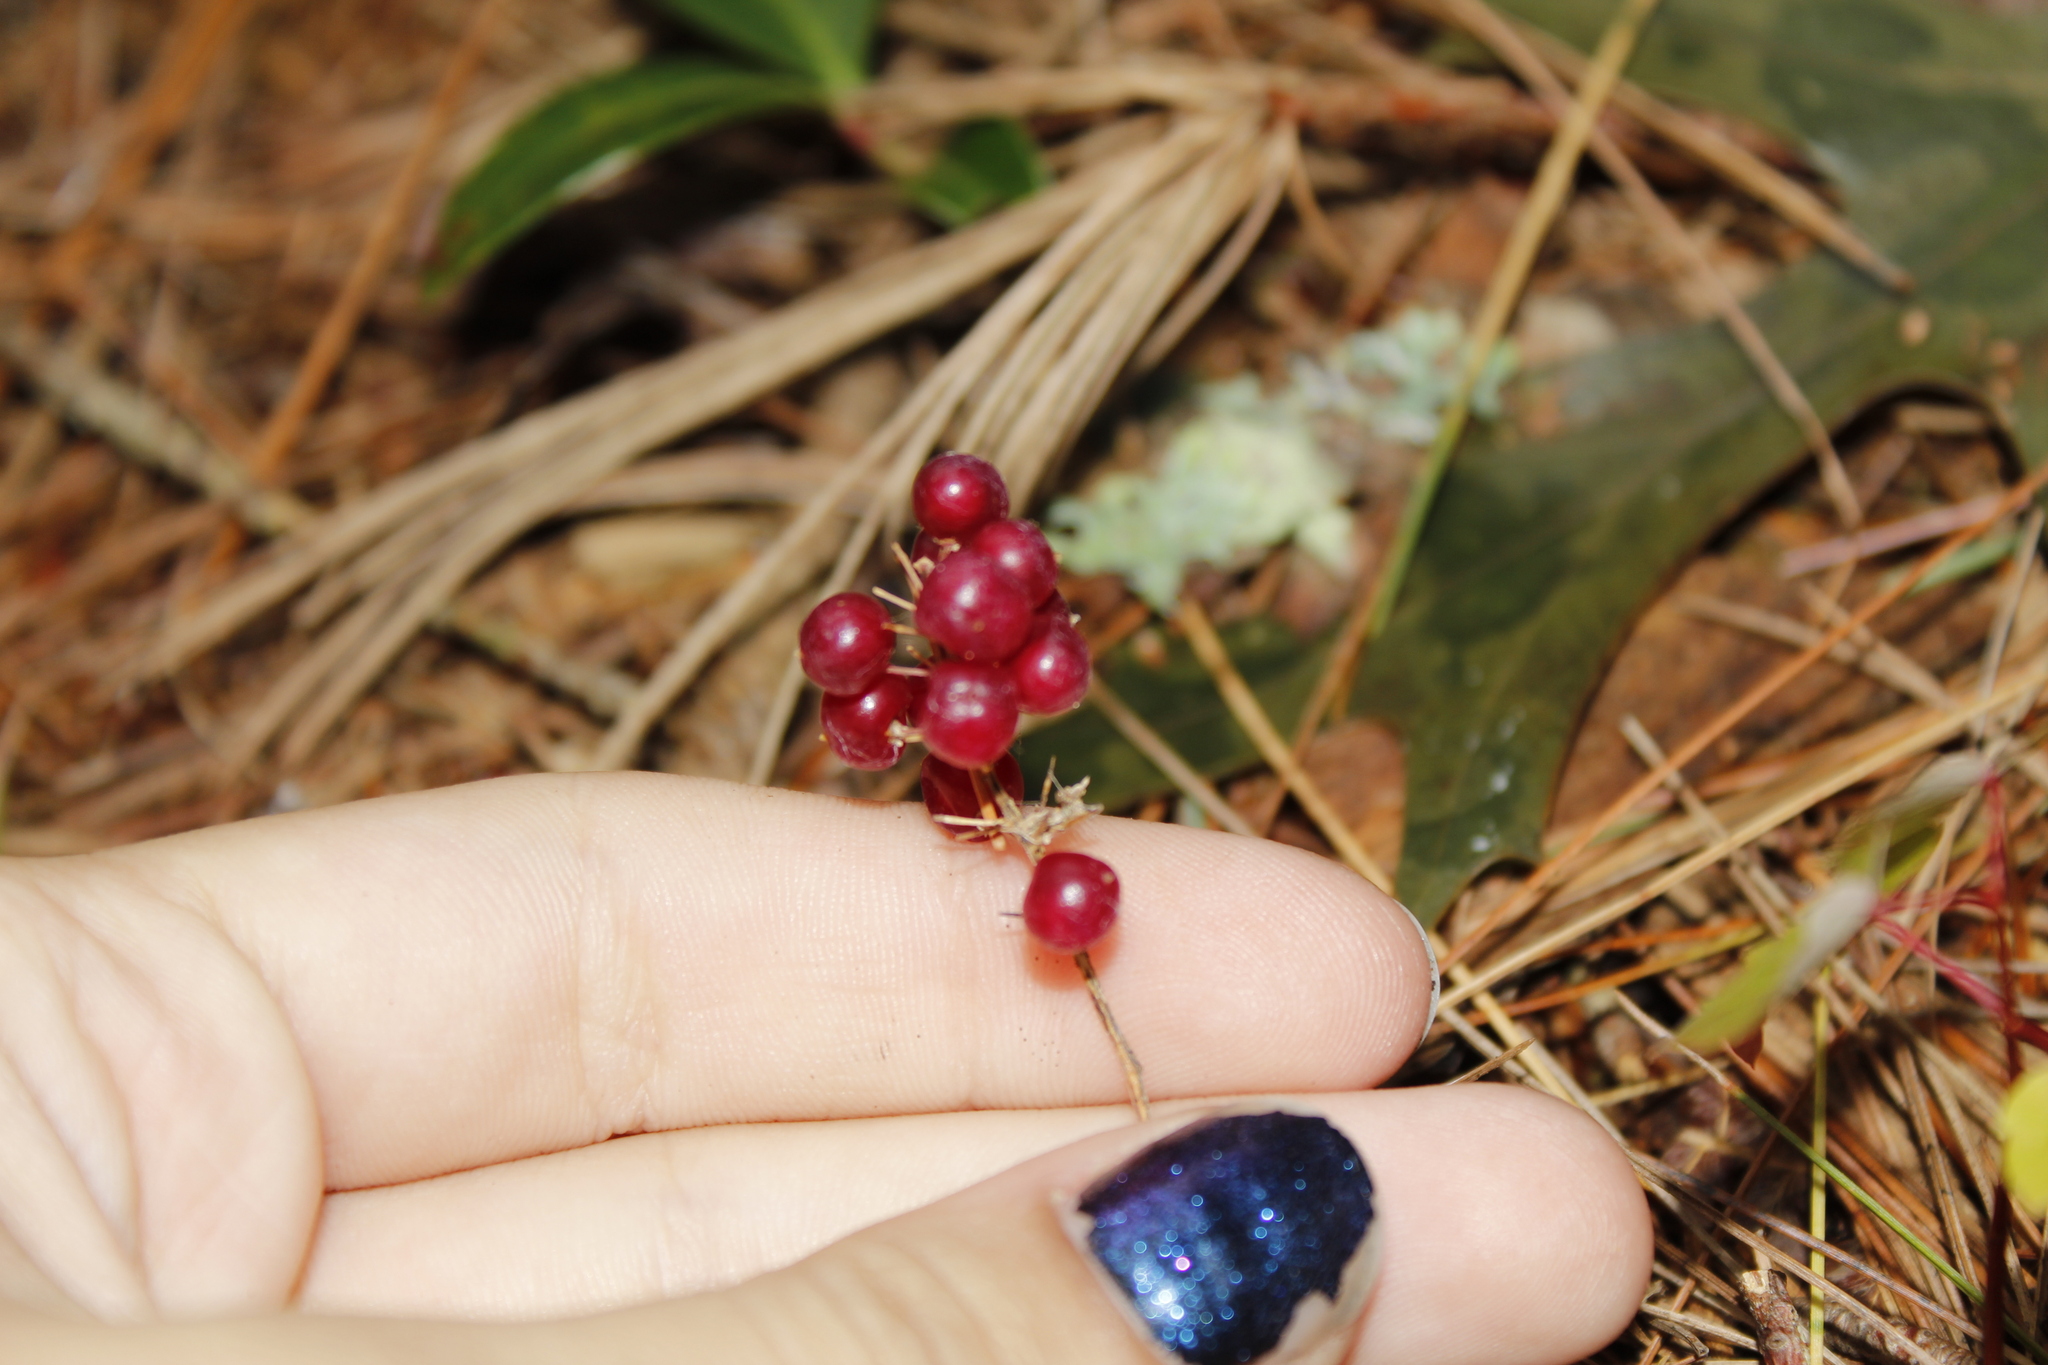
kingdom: Plantae
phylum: Tracheophyta
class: Liliopsida
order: Asparagales
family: Asparagaceae
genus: Maianthemum
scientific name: Maianthemum canadense
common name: False lily-of-the-valley
